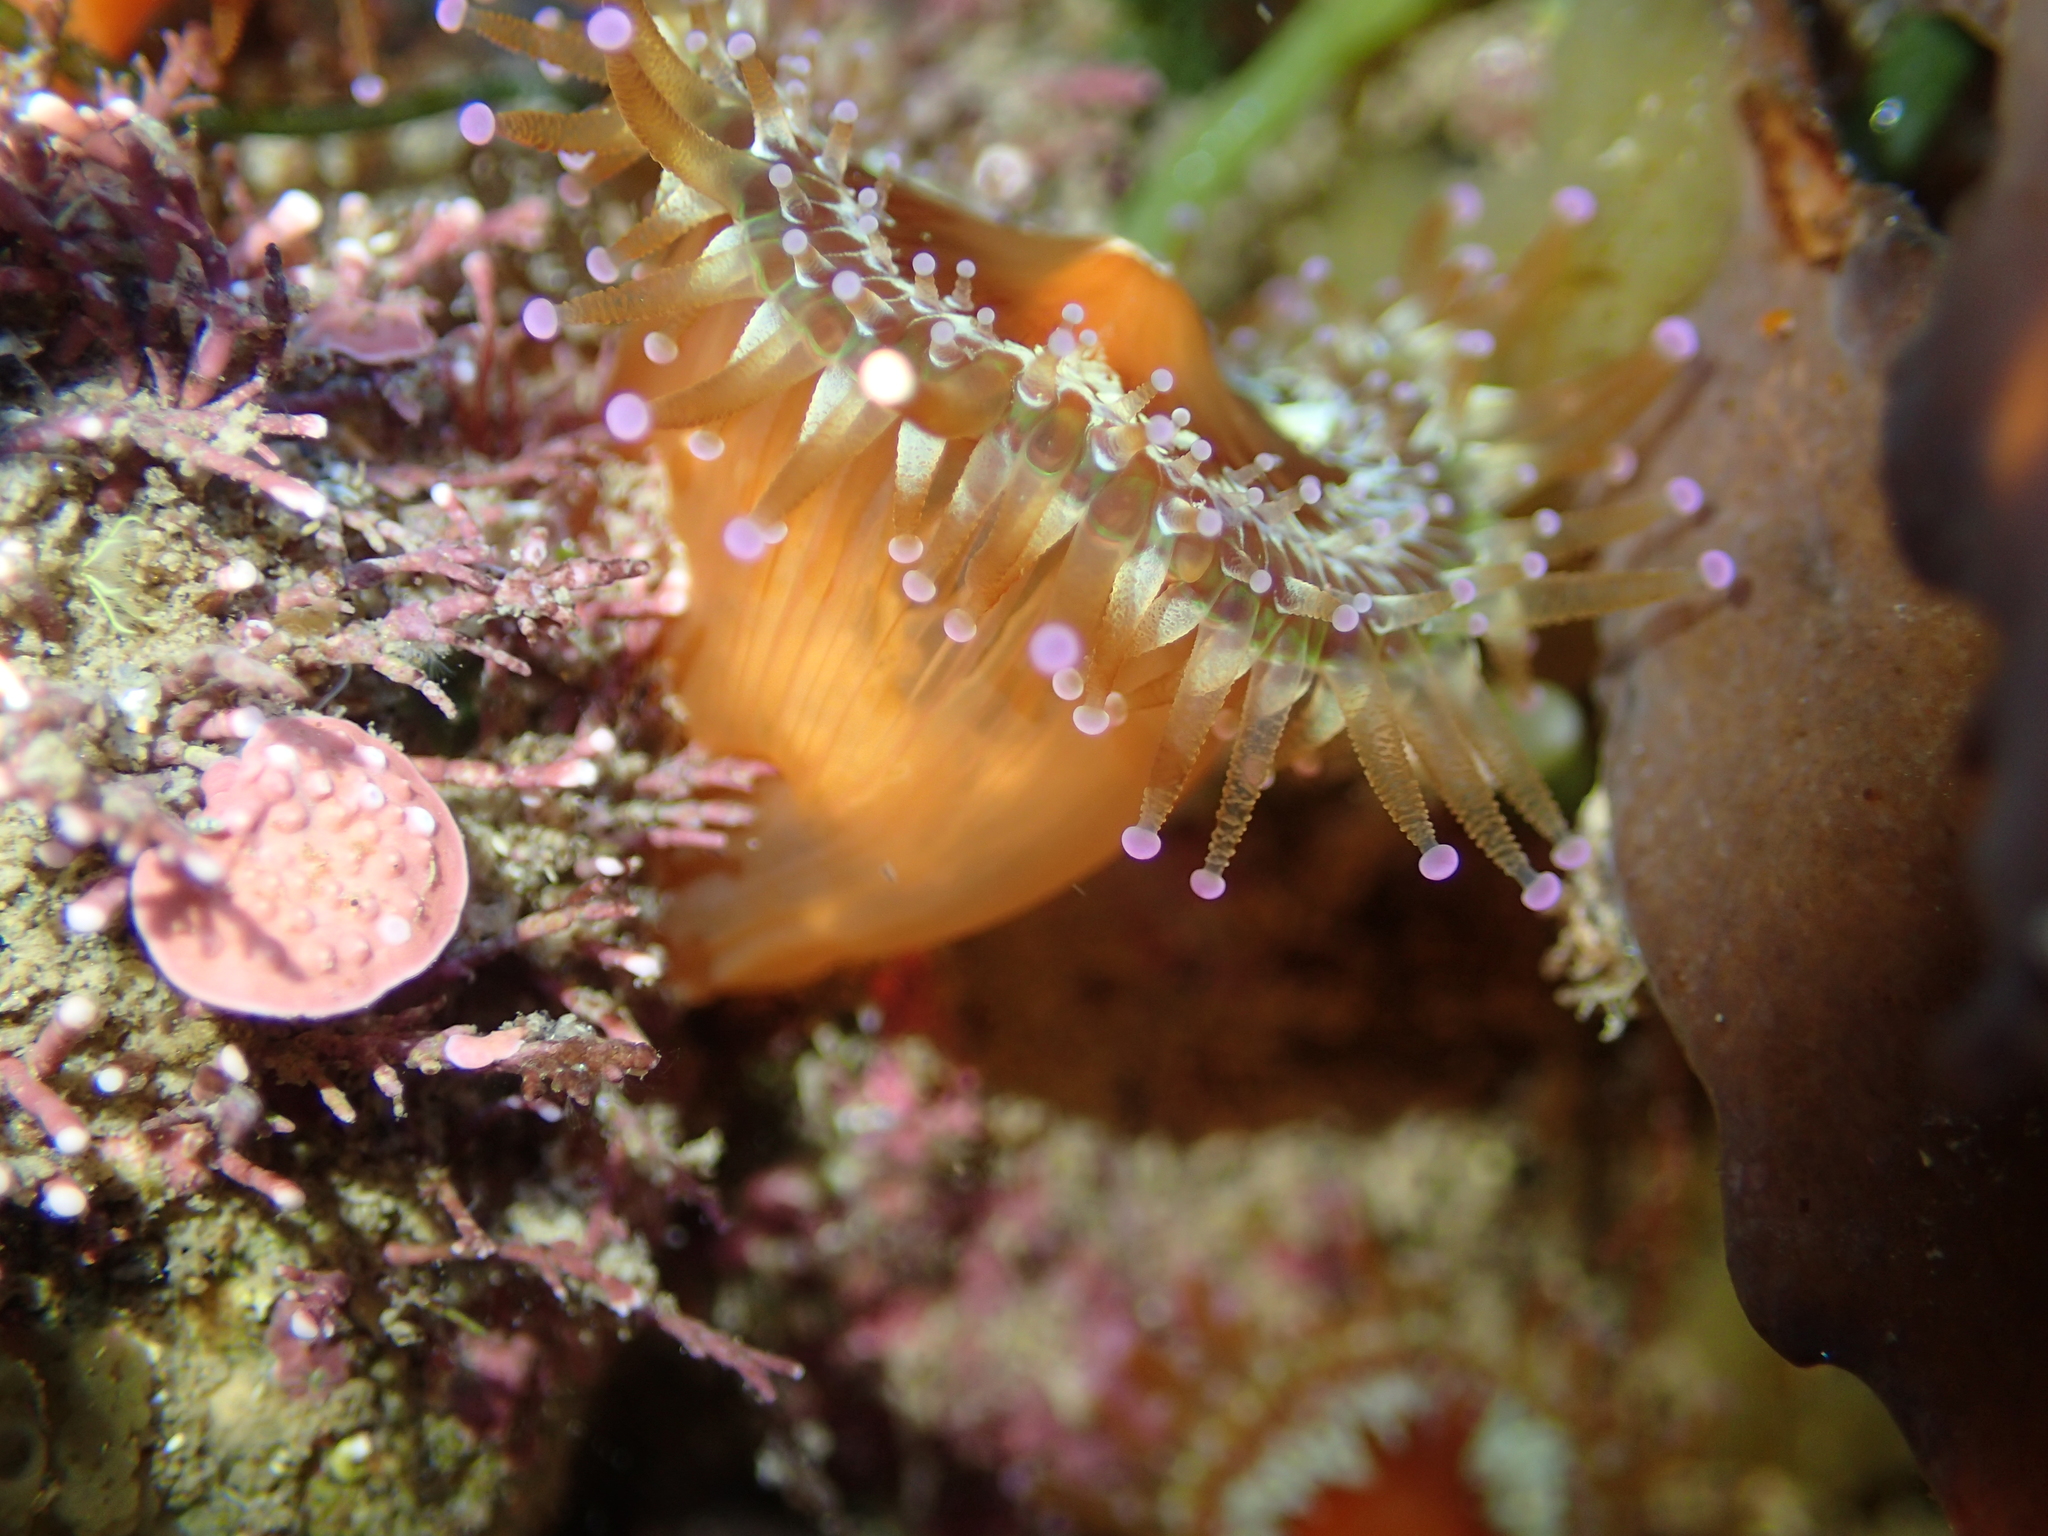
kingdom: Animalia
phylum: Cnidaria
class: Anthozoa
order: Corallimorpharia
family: Corallimorphidae
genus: Corynactis
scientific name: Corynactis australis
